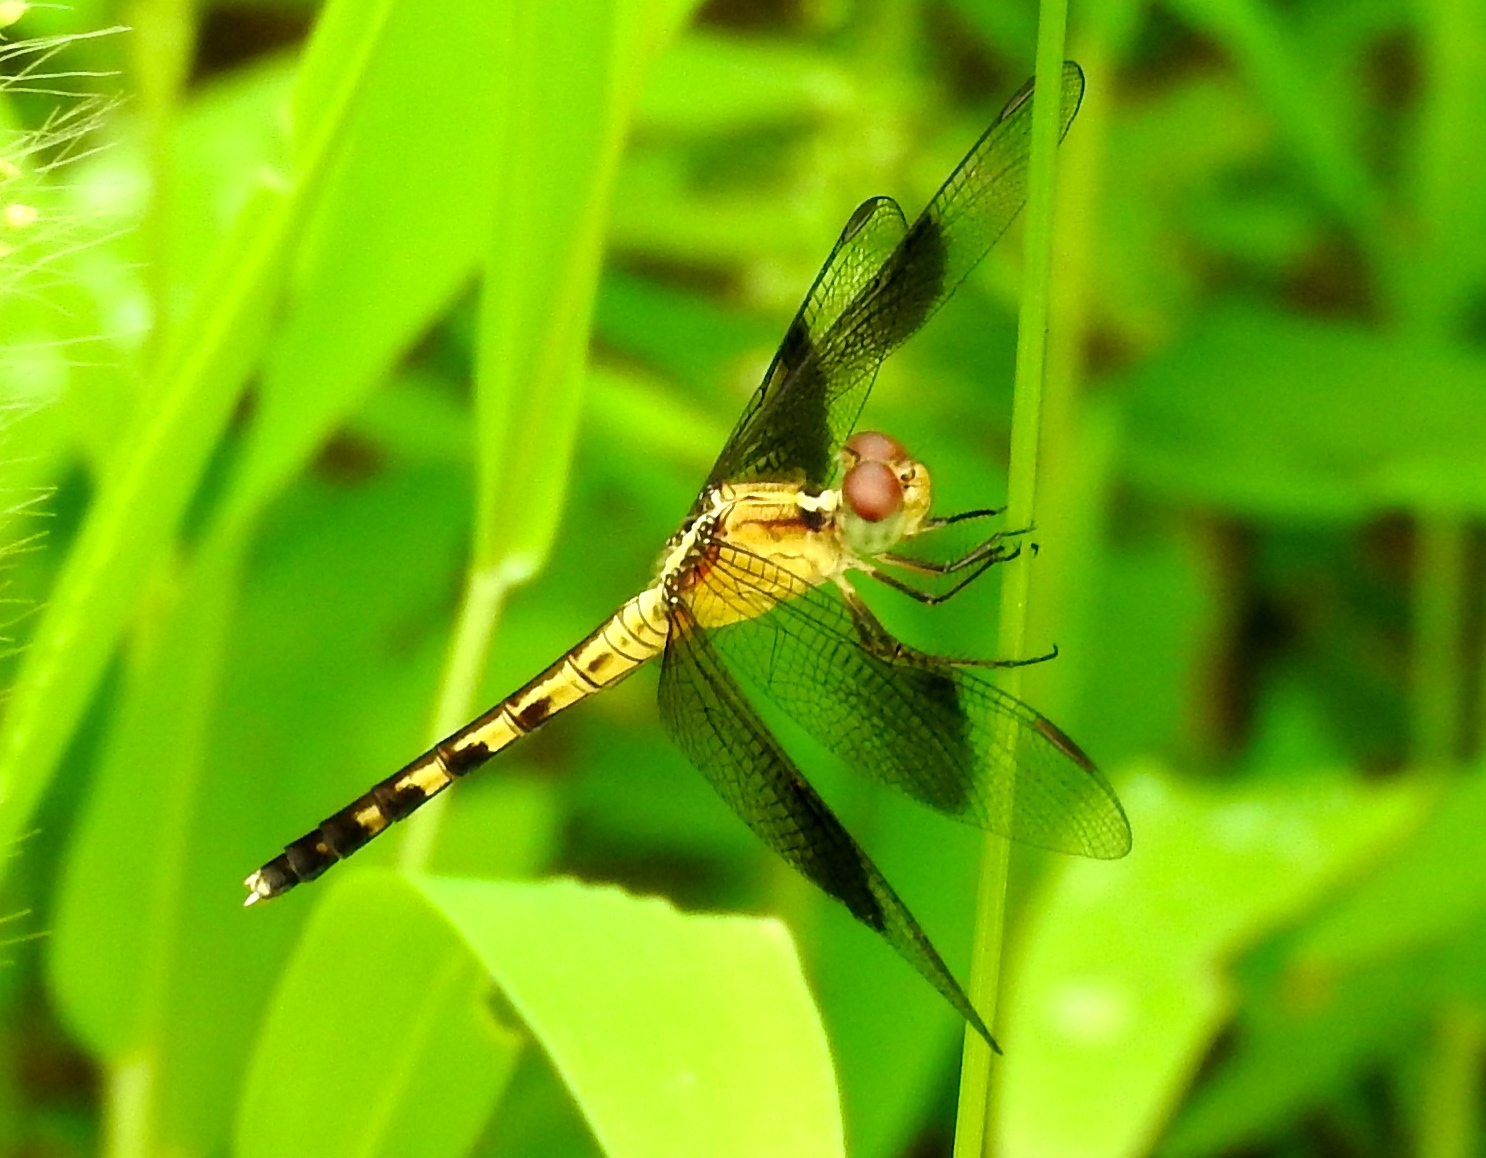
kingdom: Animalia
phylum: Arthropoda
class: Insecta
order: Odonata
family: Libellulidae
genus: Erythrodiplax
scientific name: Erythrodiplax funerea
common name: Black-winged dragonlet
